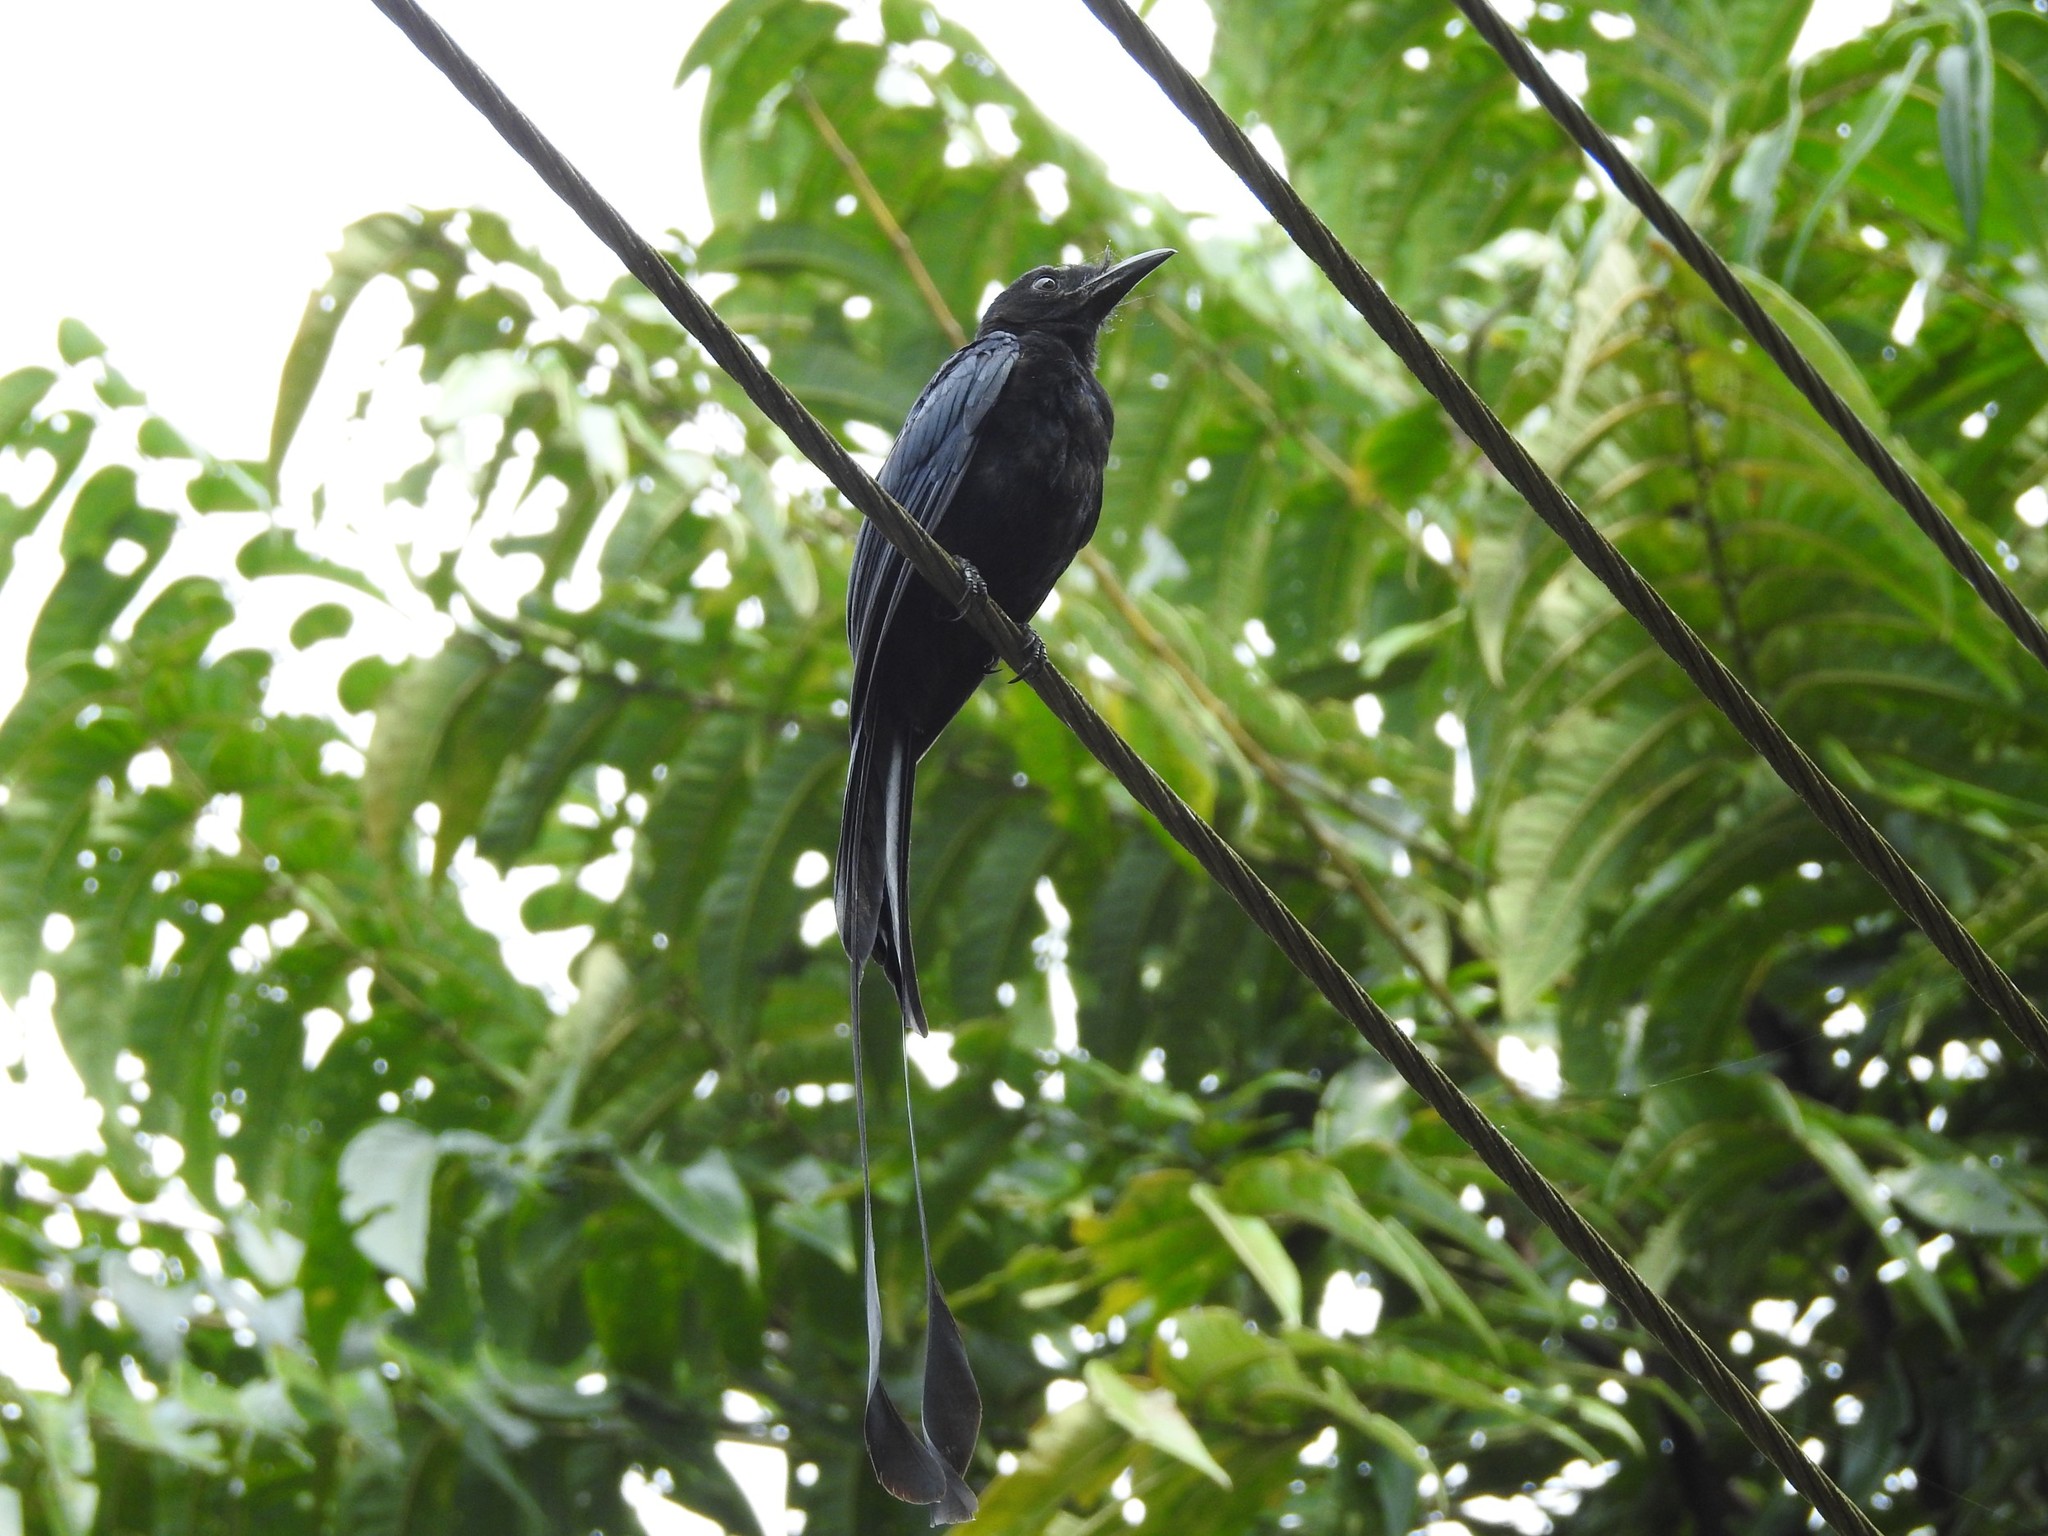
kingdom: Animalia
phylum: Chordata
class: Aves
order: Passeriformes
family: Dicruridae
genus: Dicrurus
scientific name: Dicrurus paradiseus
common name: Greater racket-tailed drongo
